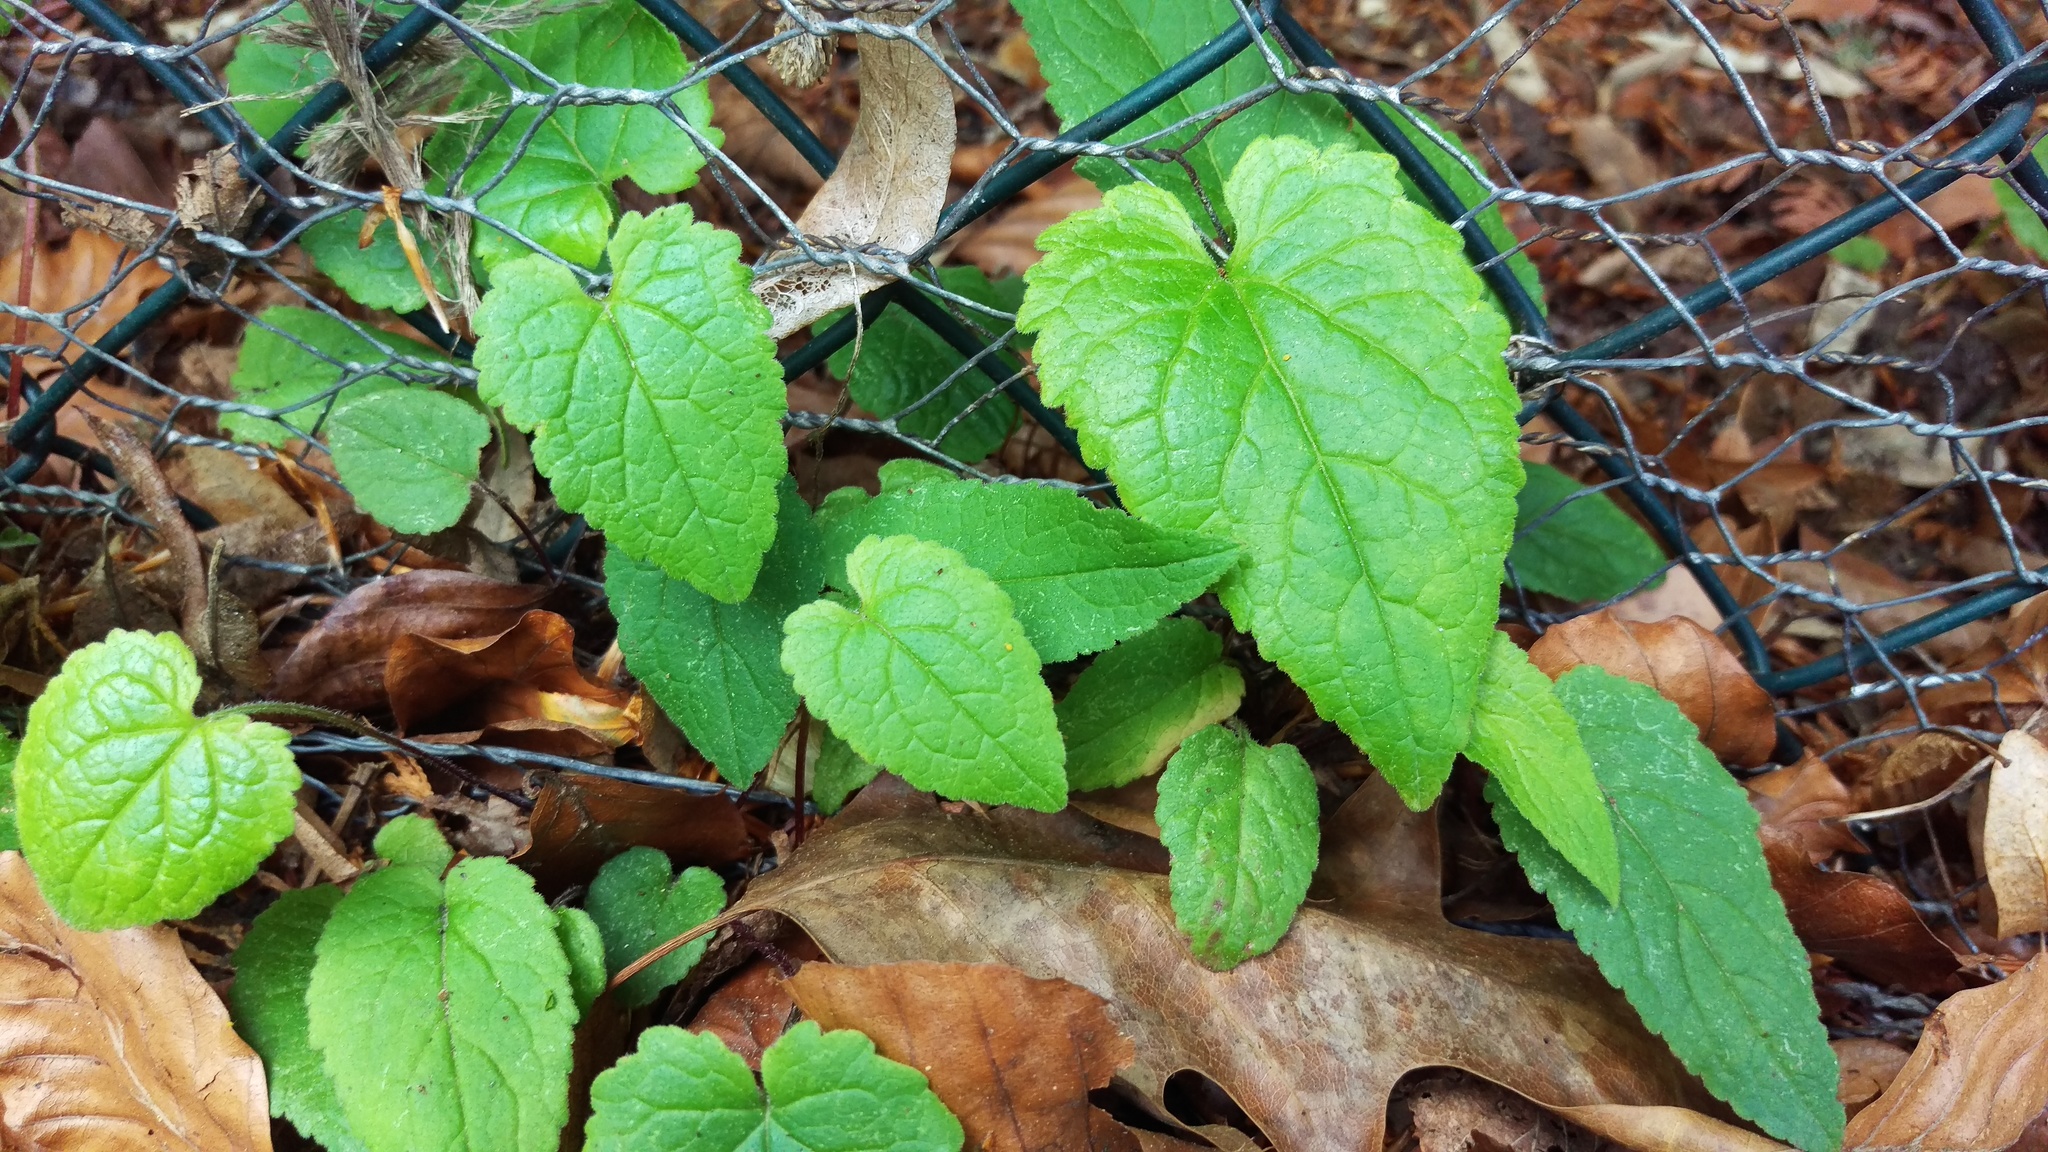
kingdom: Plantae
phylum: Tracheophyta
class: Magnoliopsida
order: Asterales
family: Campanulaceae
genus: Campanula
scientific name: Campanula rapunculoides
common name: Creeping bellflower
